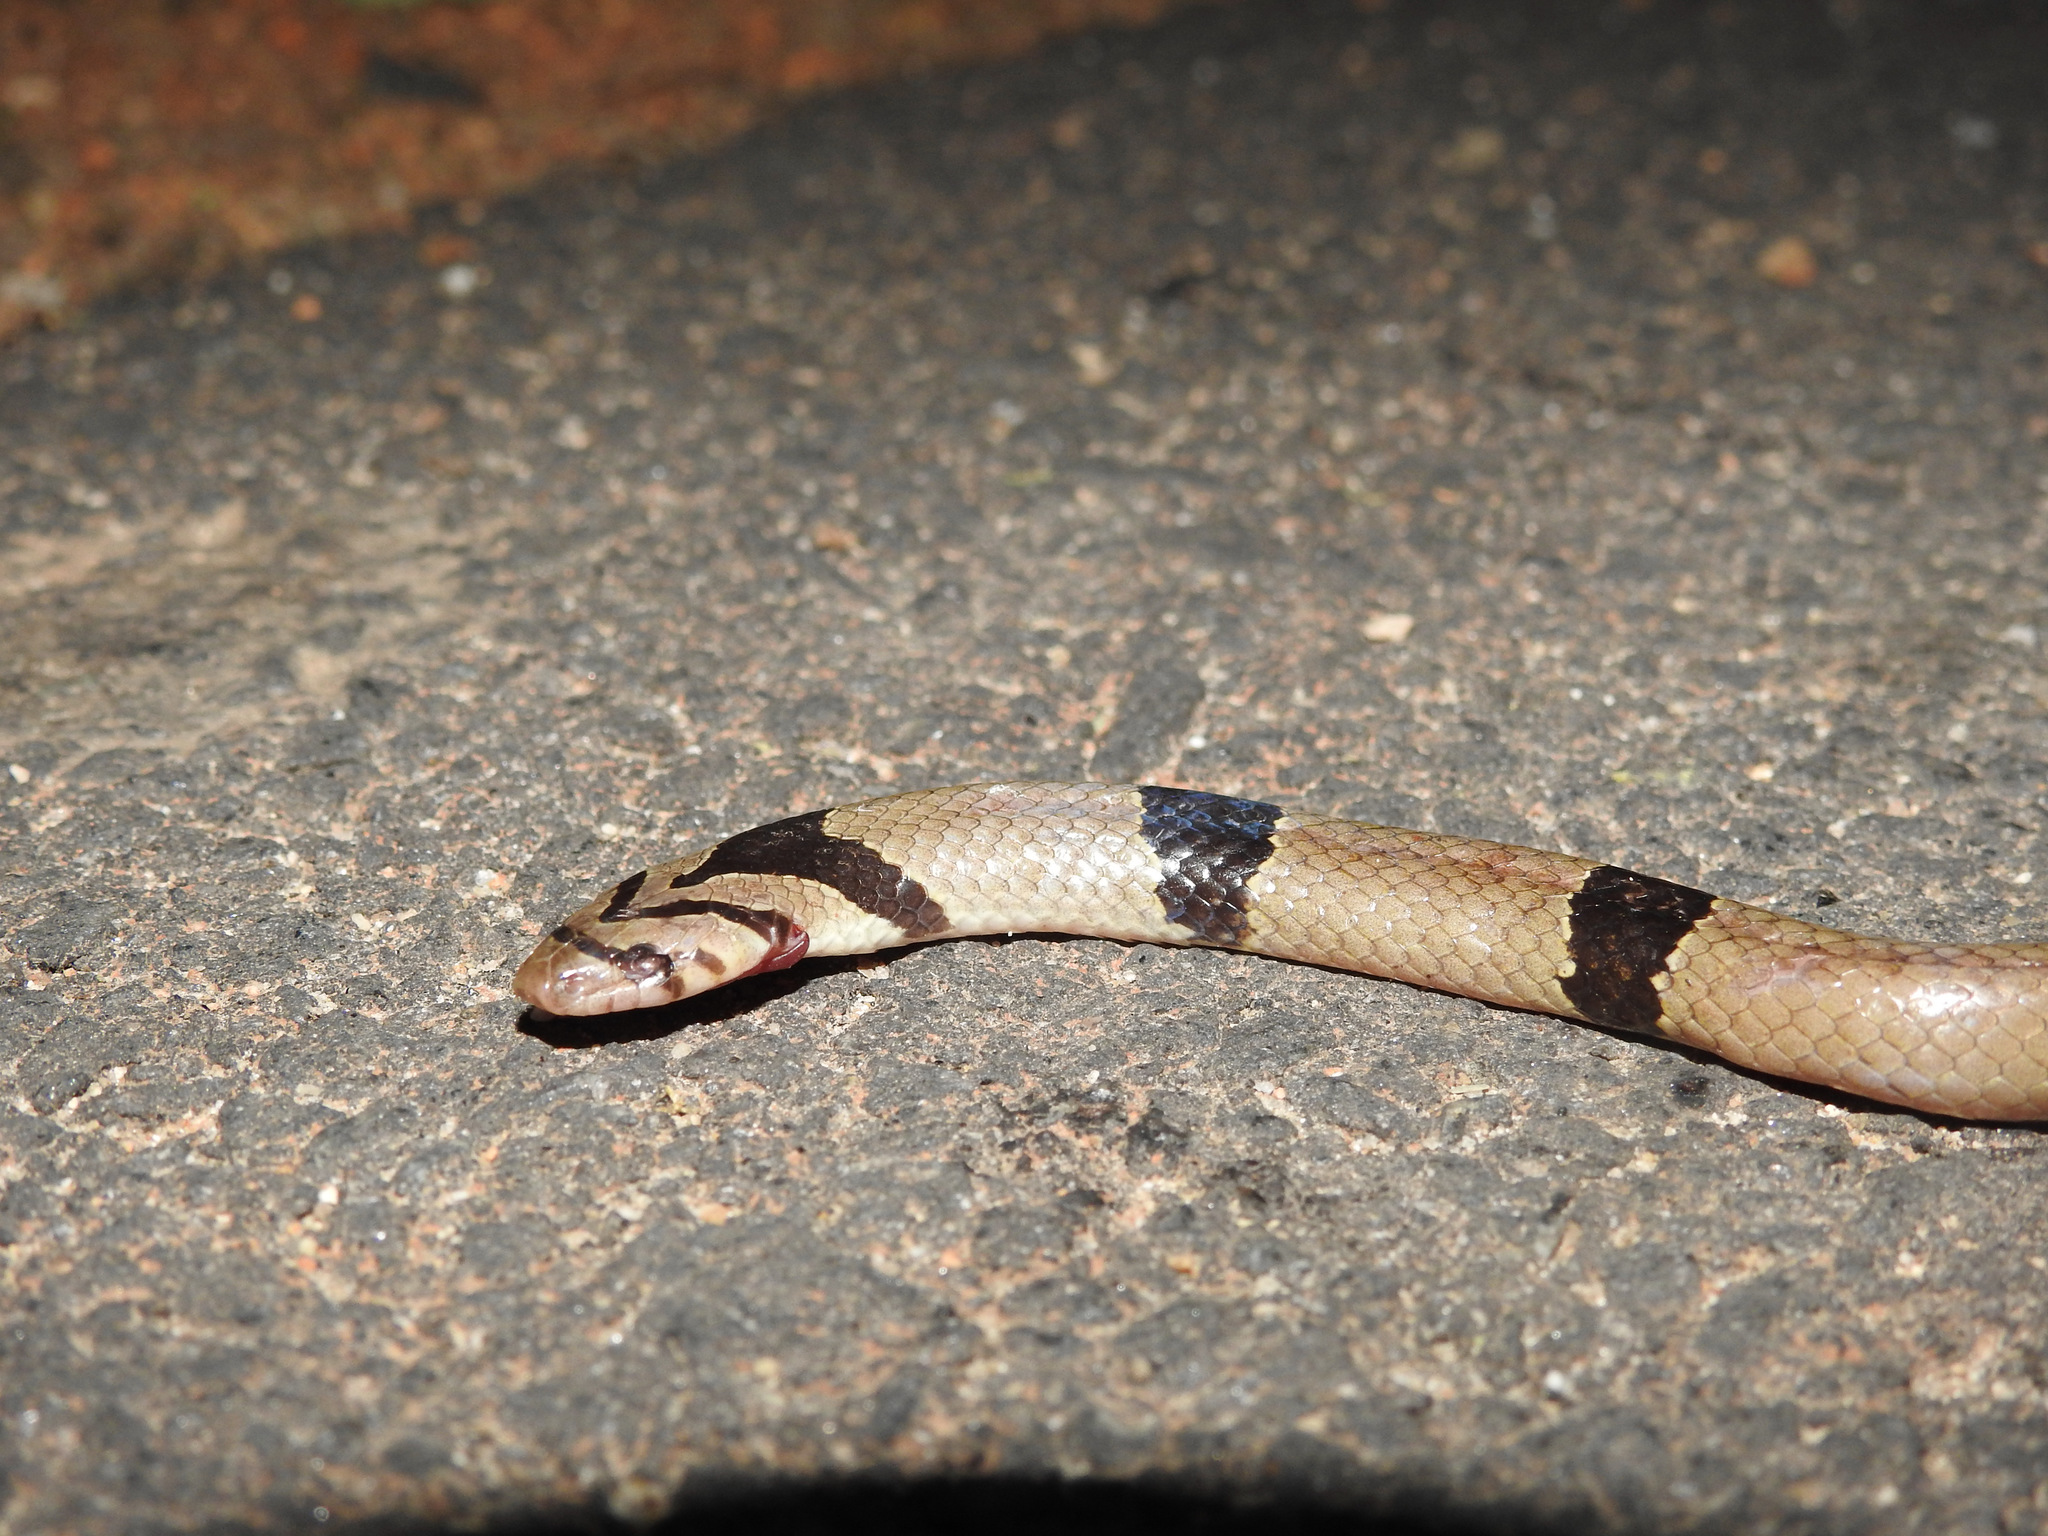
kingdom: Animalia
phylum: Chordata
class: Squamata
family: Colubridae
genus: Oligodon
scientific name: Oligodon arnensis
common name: Banded kukri
